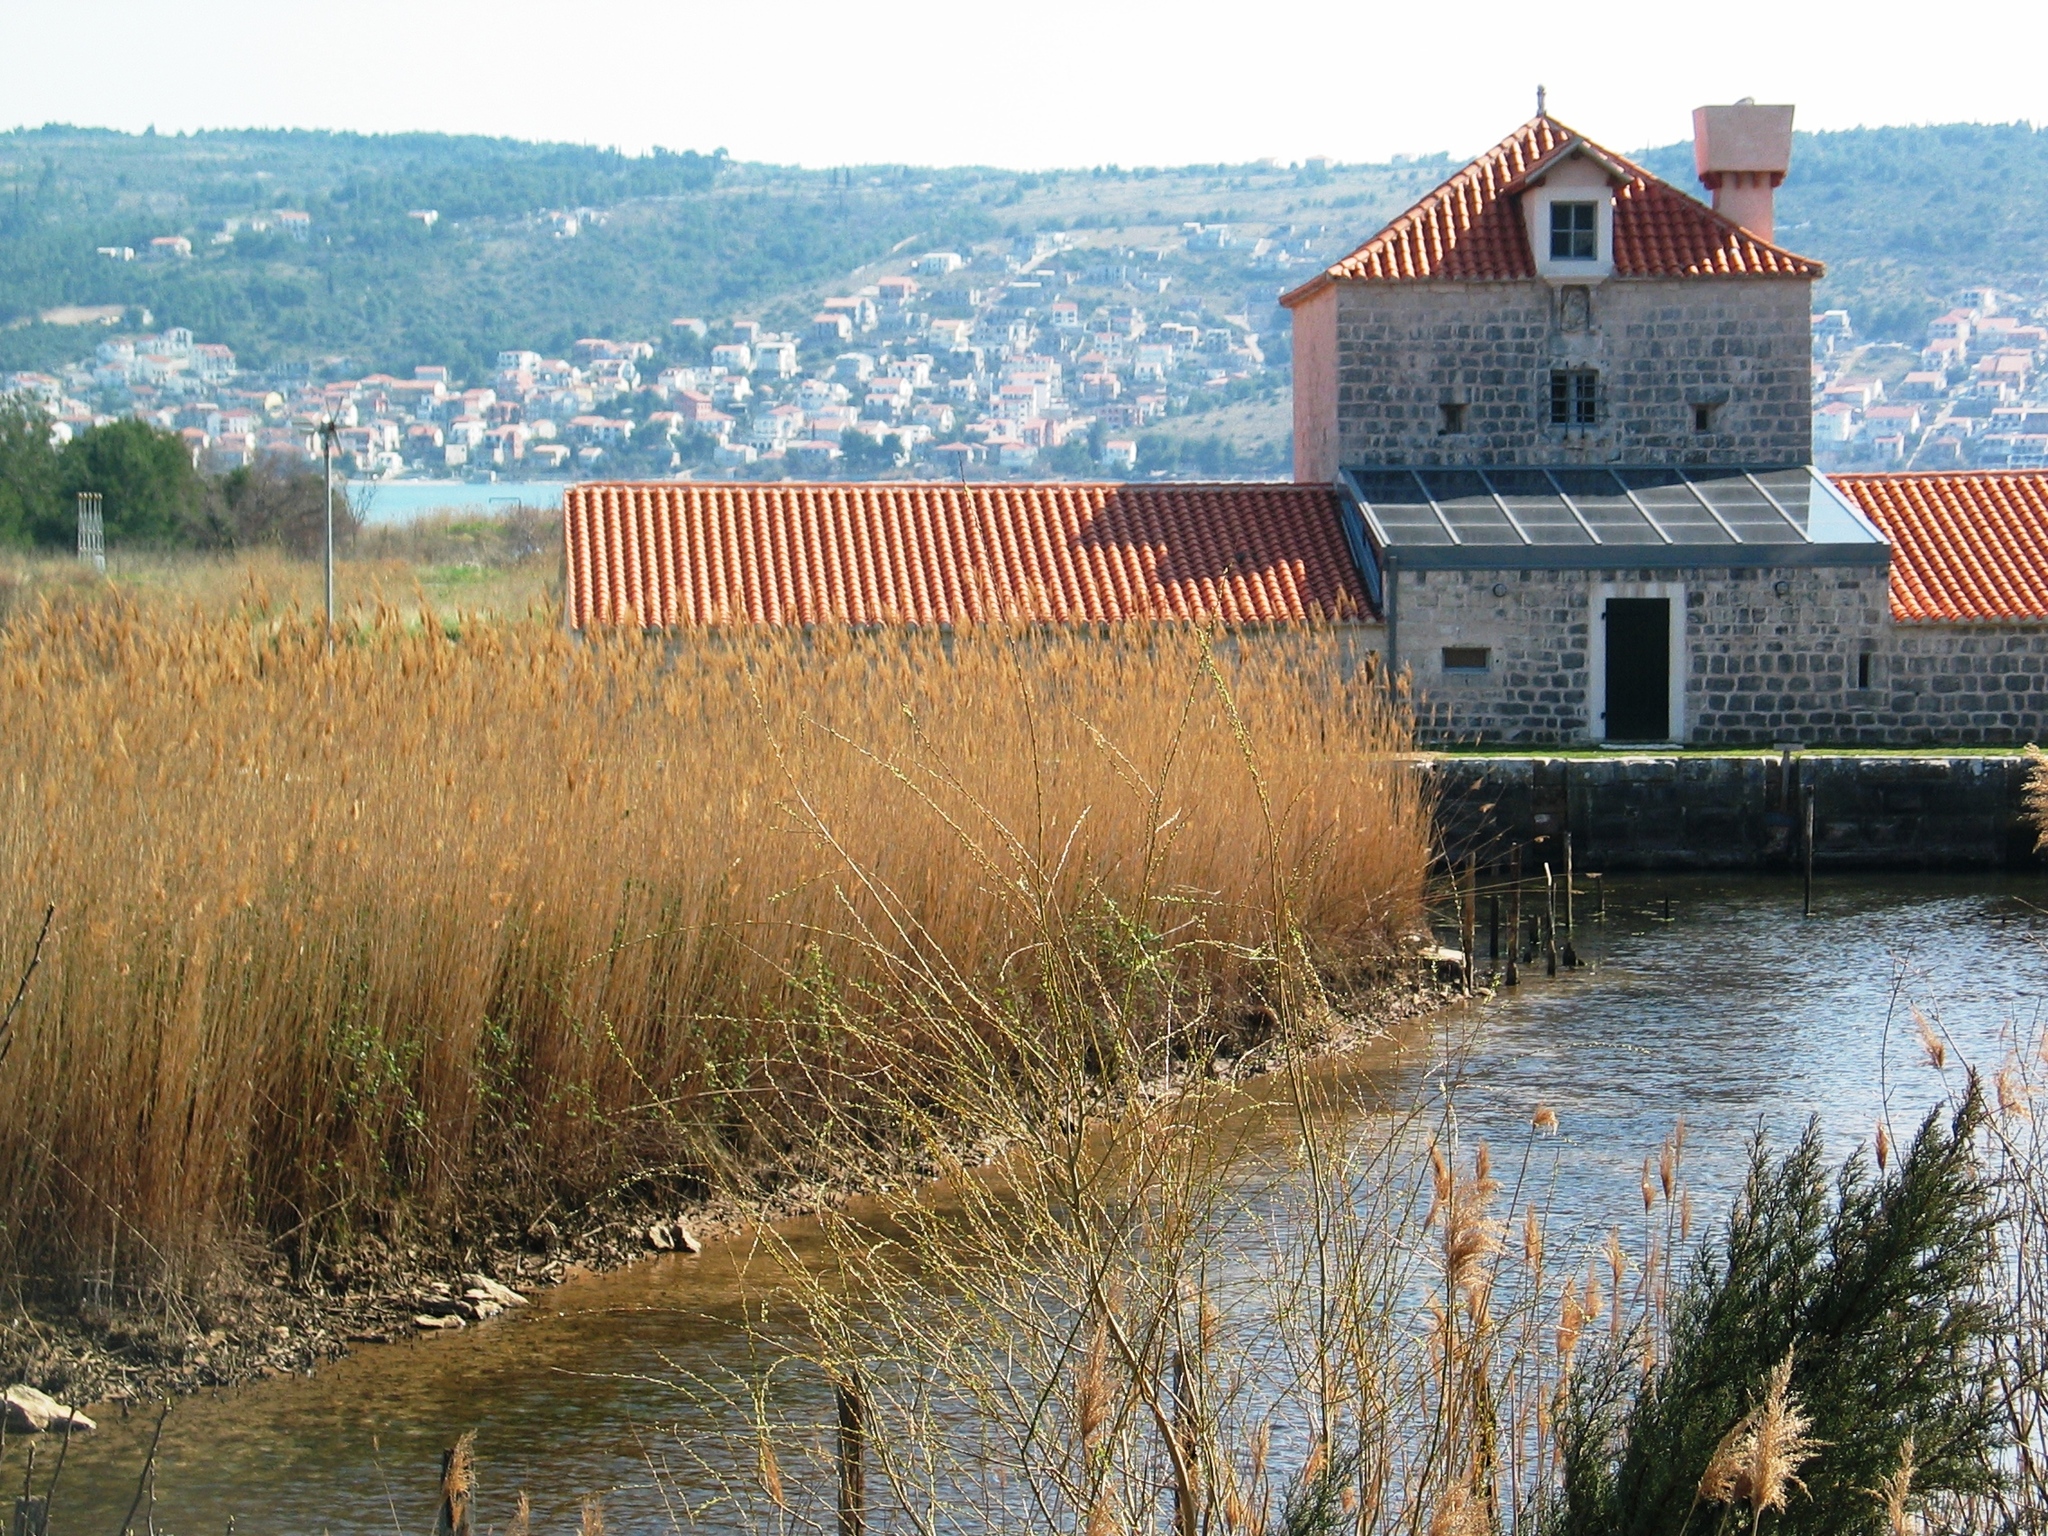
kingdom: Plantae
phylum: Tracheophyta
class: Liliopsida
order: Poales
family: Poaceae
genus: Phragmites
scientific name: Phragmites australis
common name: Common reed
